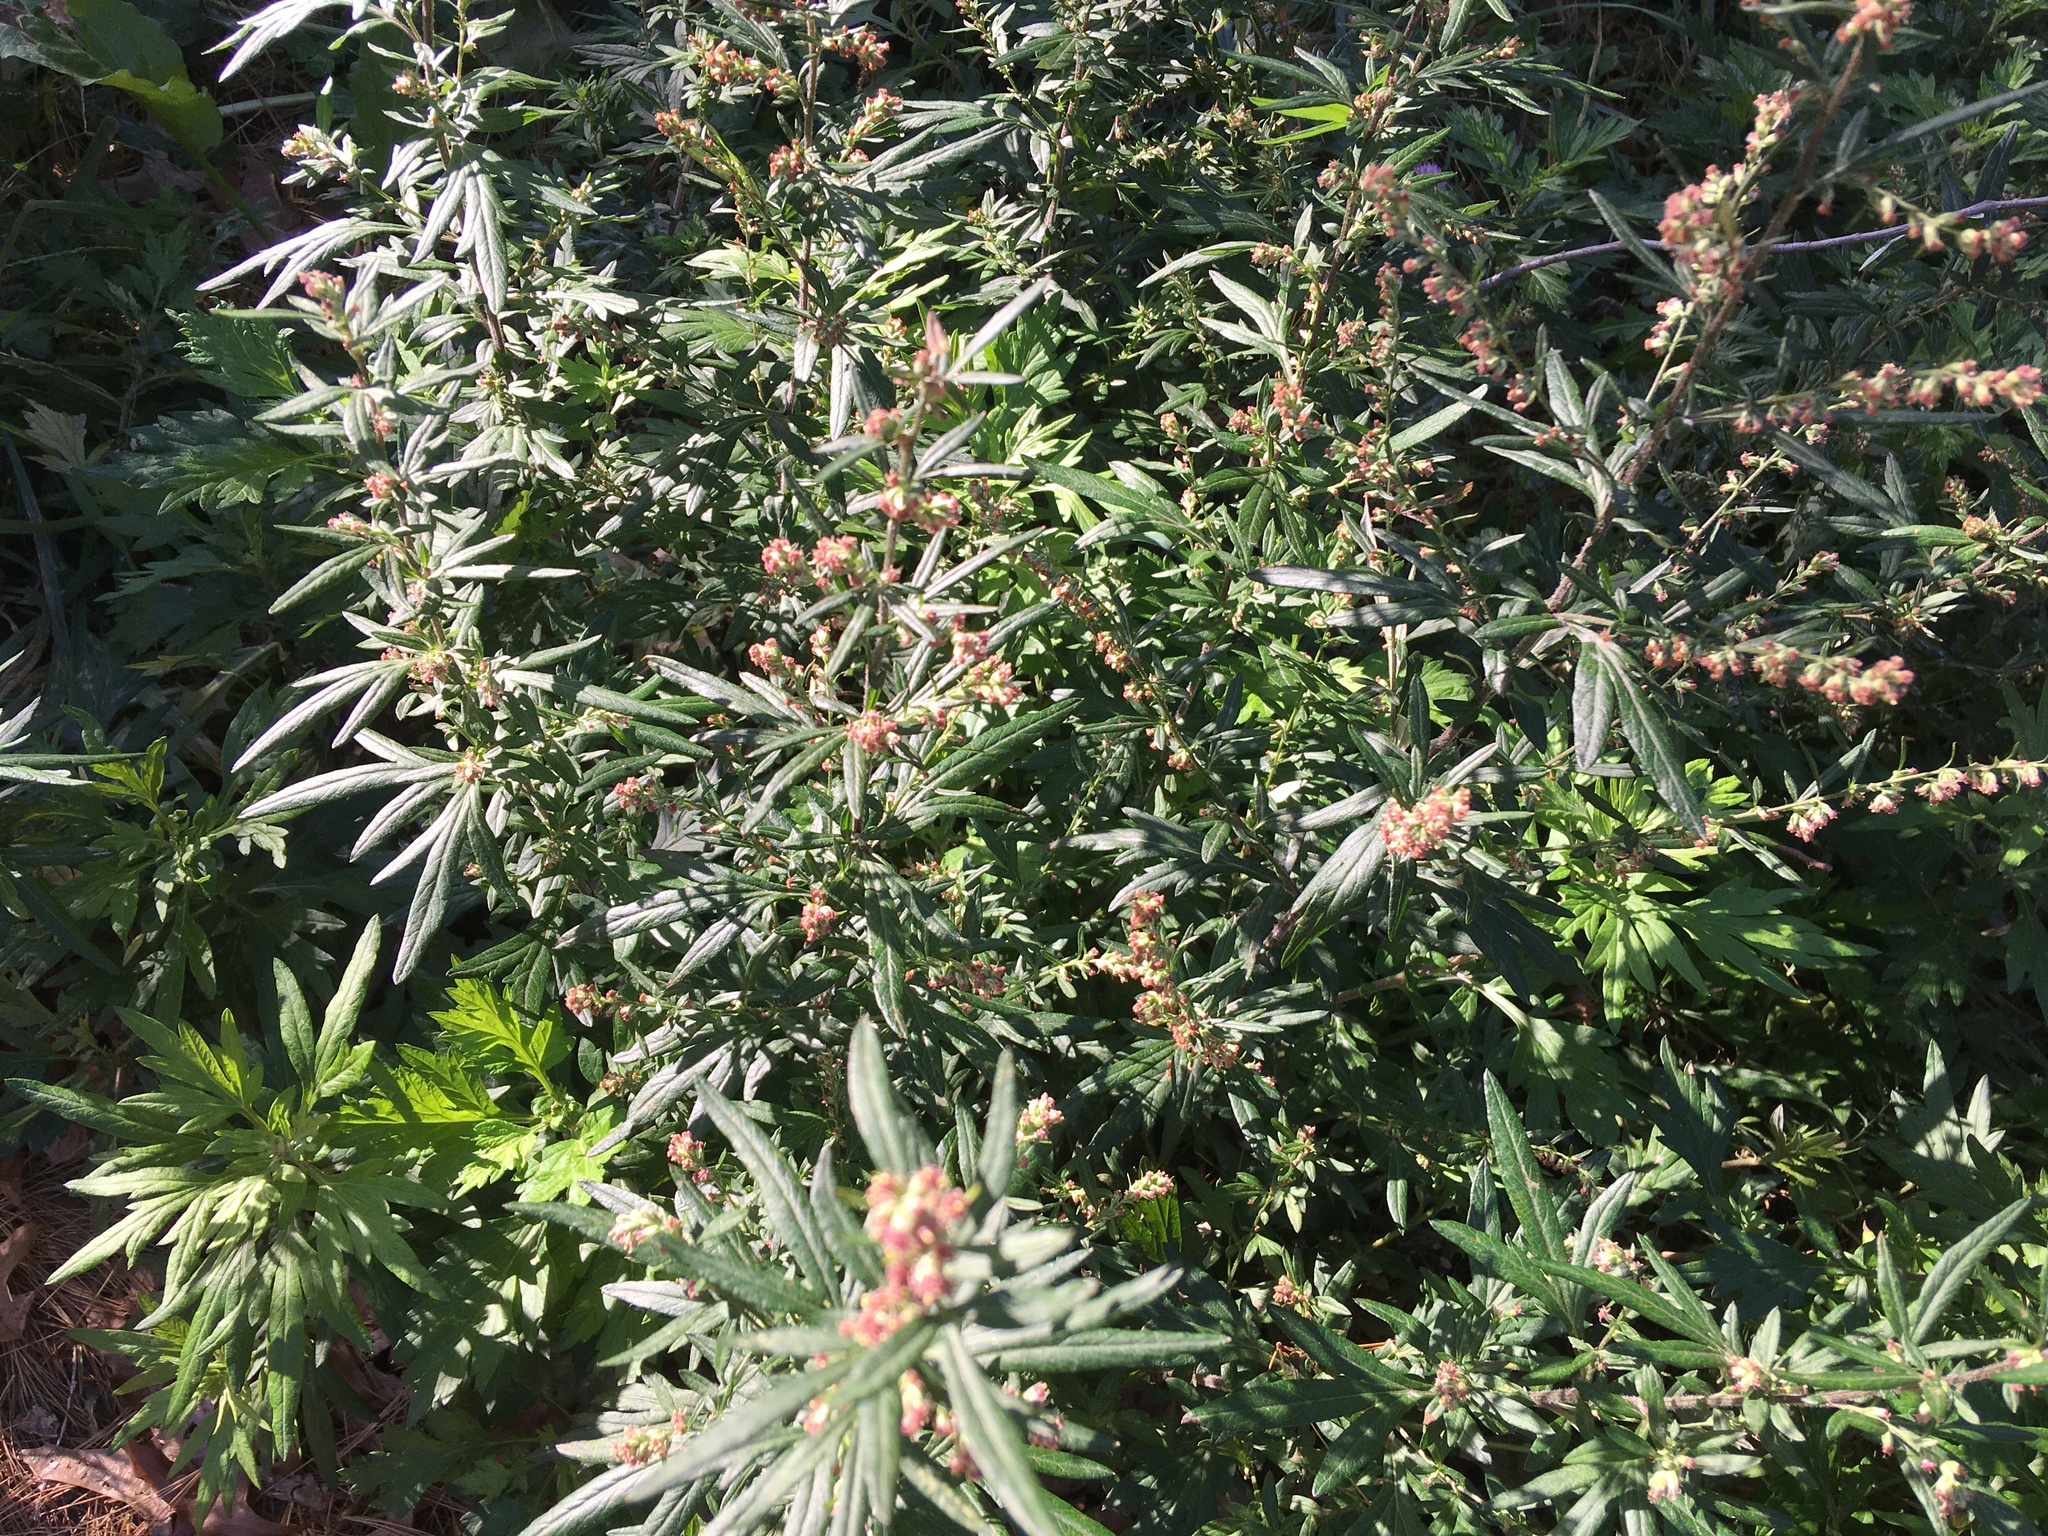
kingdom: Plantae
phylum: Tracheophyta
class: Magnoliopsida
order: Asterales
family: Asteraceae
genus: Artemisia
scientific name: Artemisia vulgaris
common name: Mugwort
